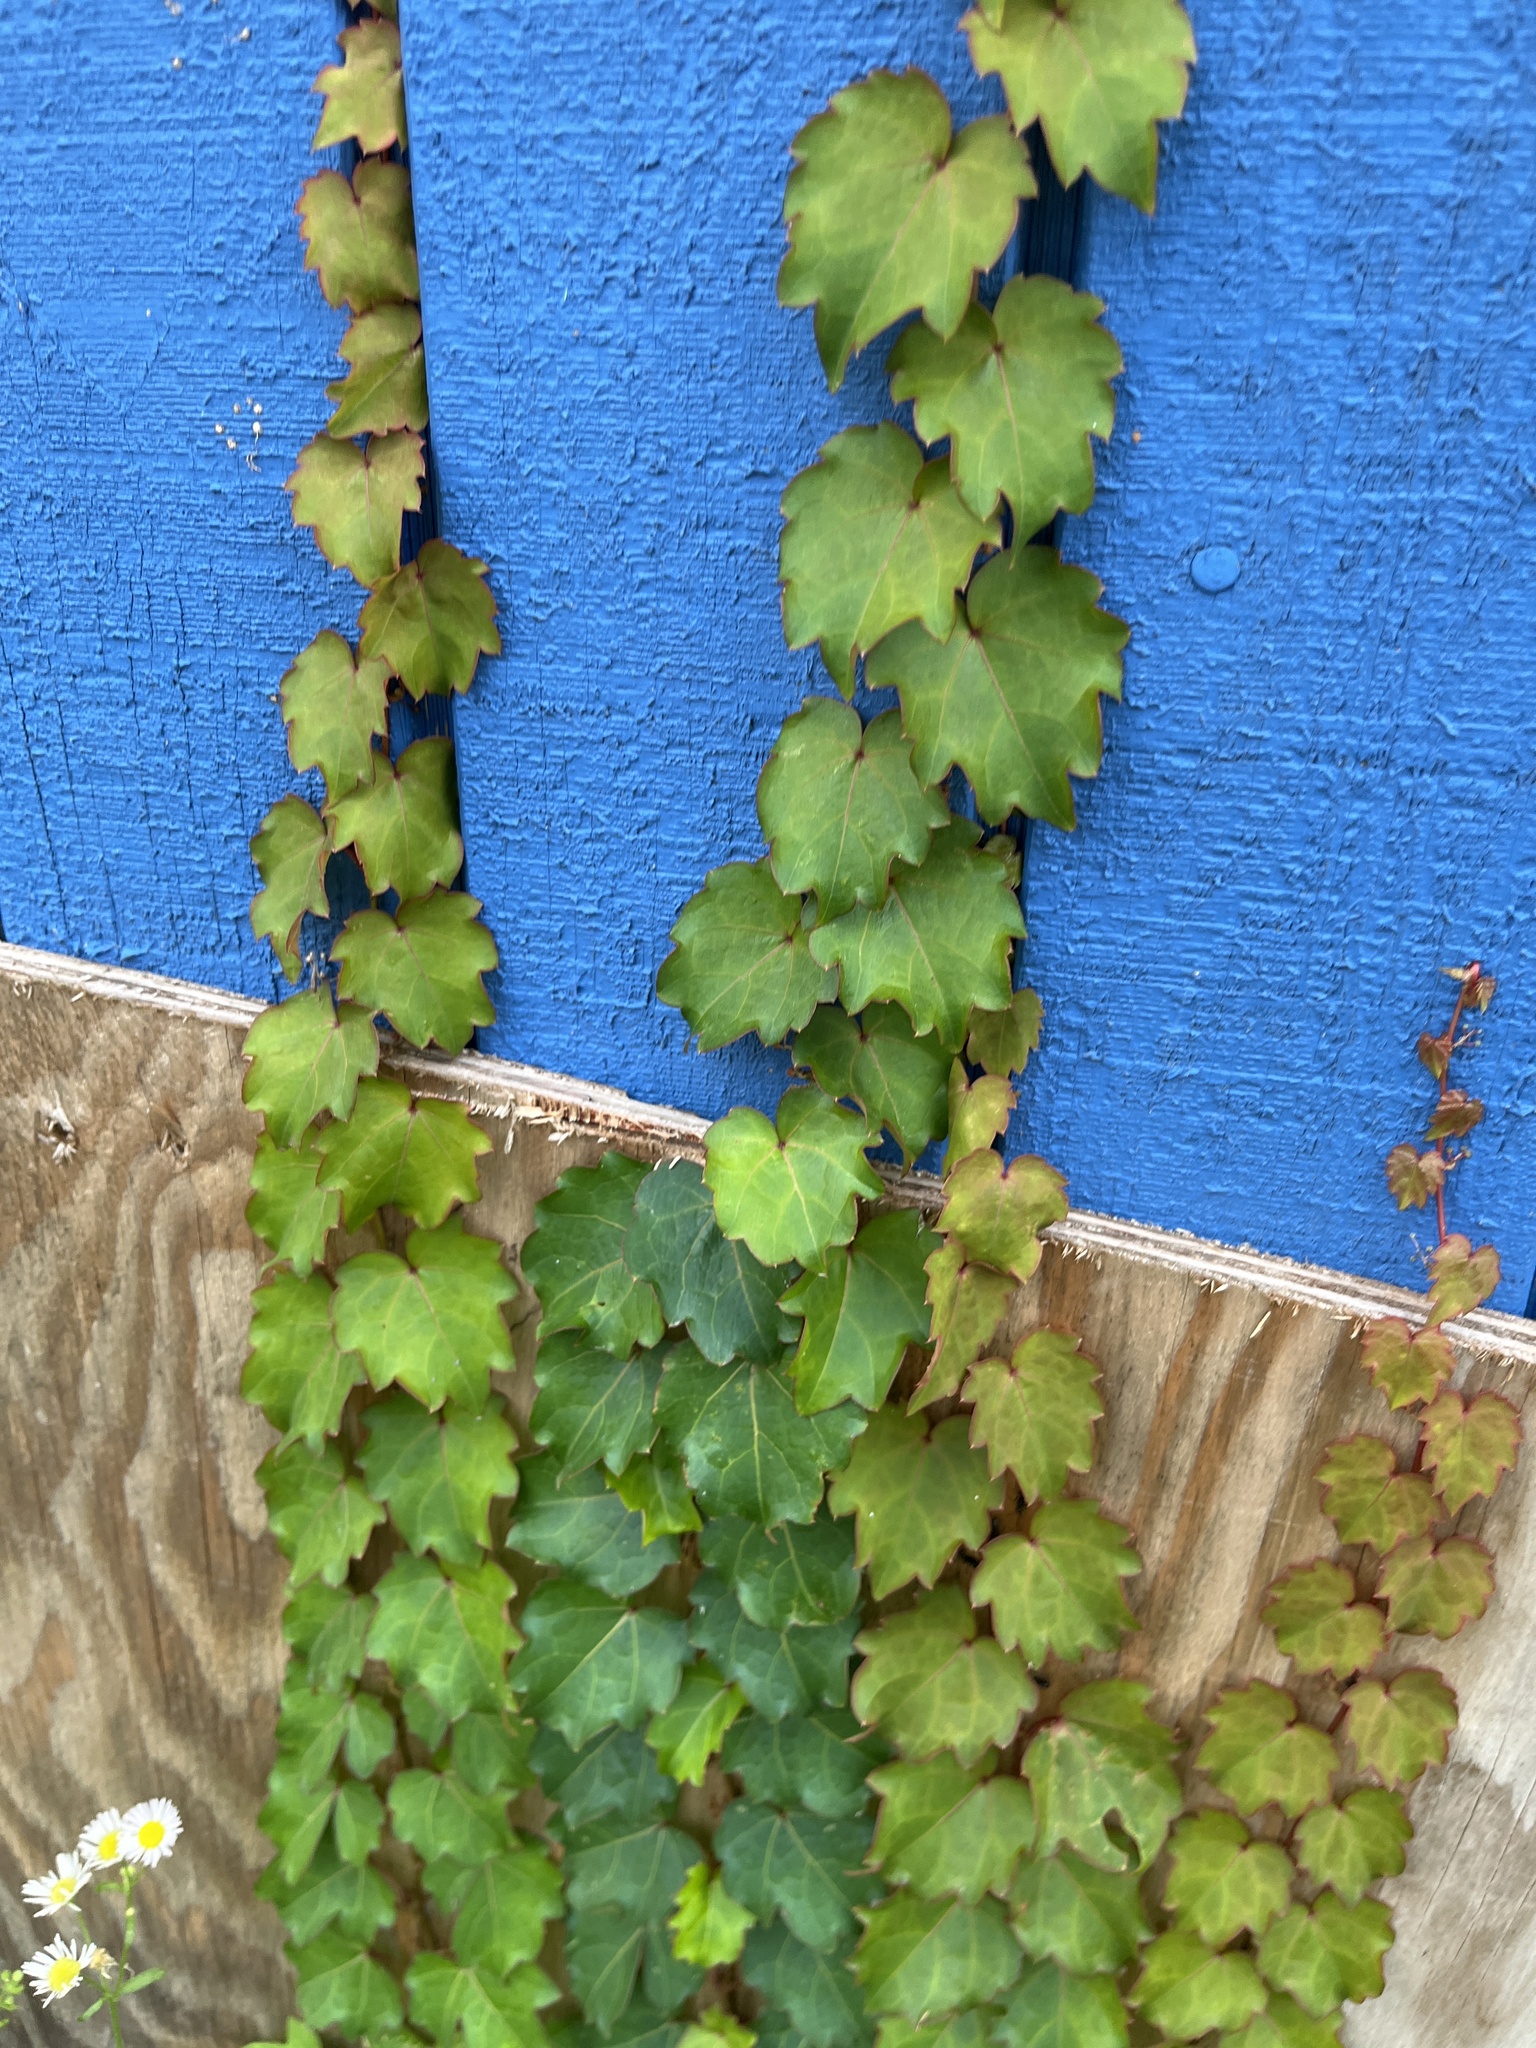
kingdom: Plantae
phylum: Tracheophyta
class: Magnoliopsida
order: Vitales
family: Vitaceae
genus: Parthenocissus
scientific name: Parthenocissus tricuspidata
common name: Boston ivy
